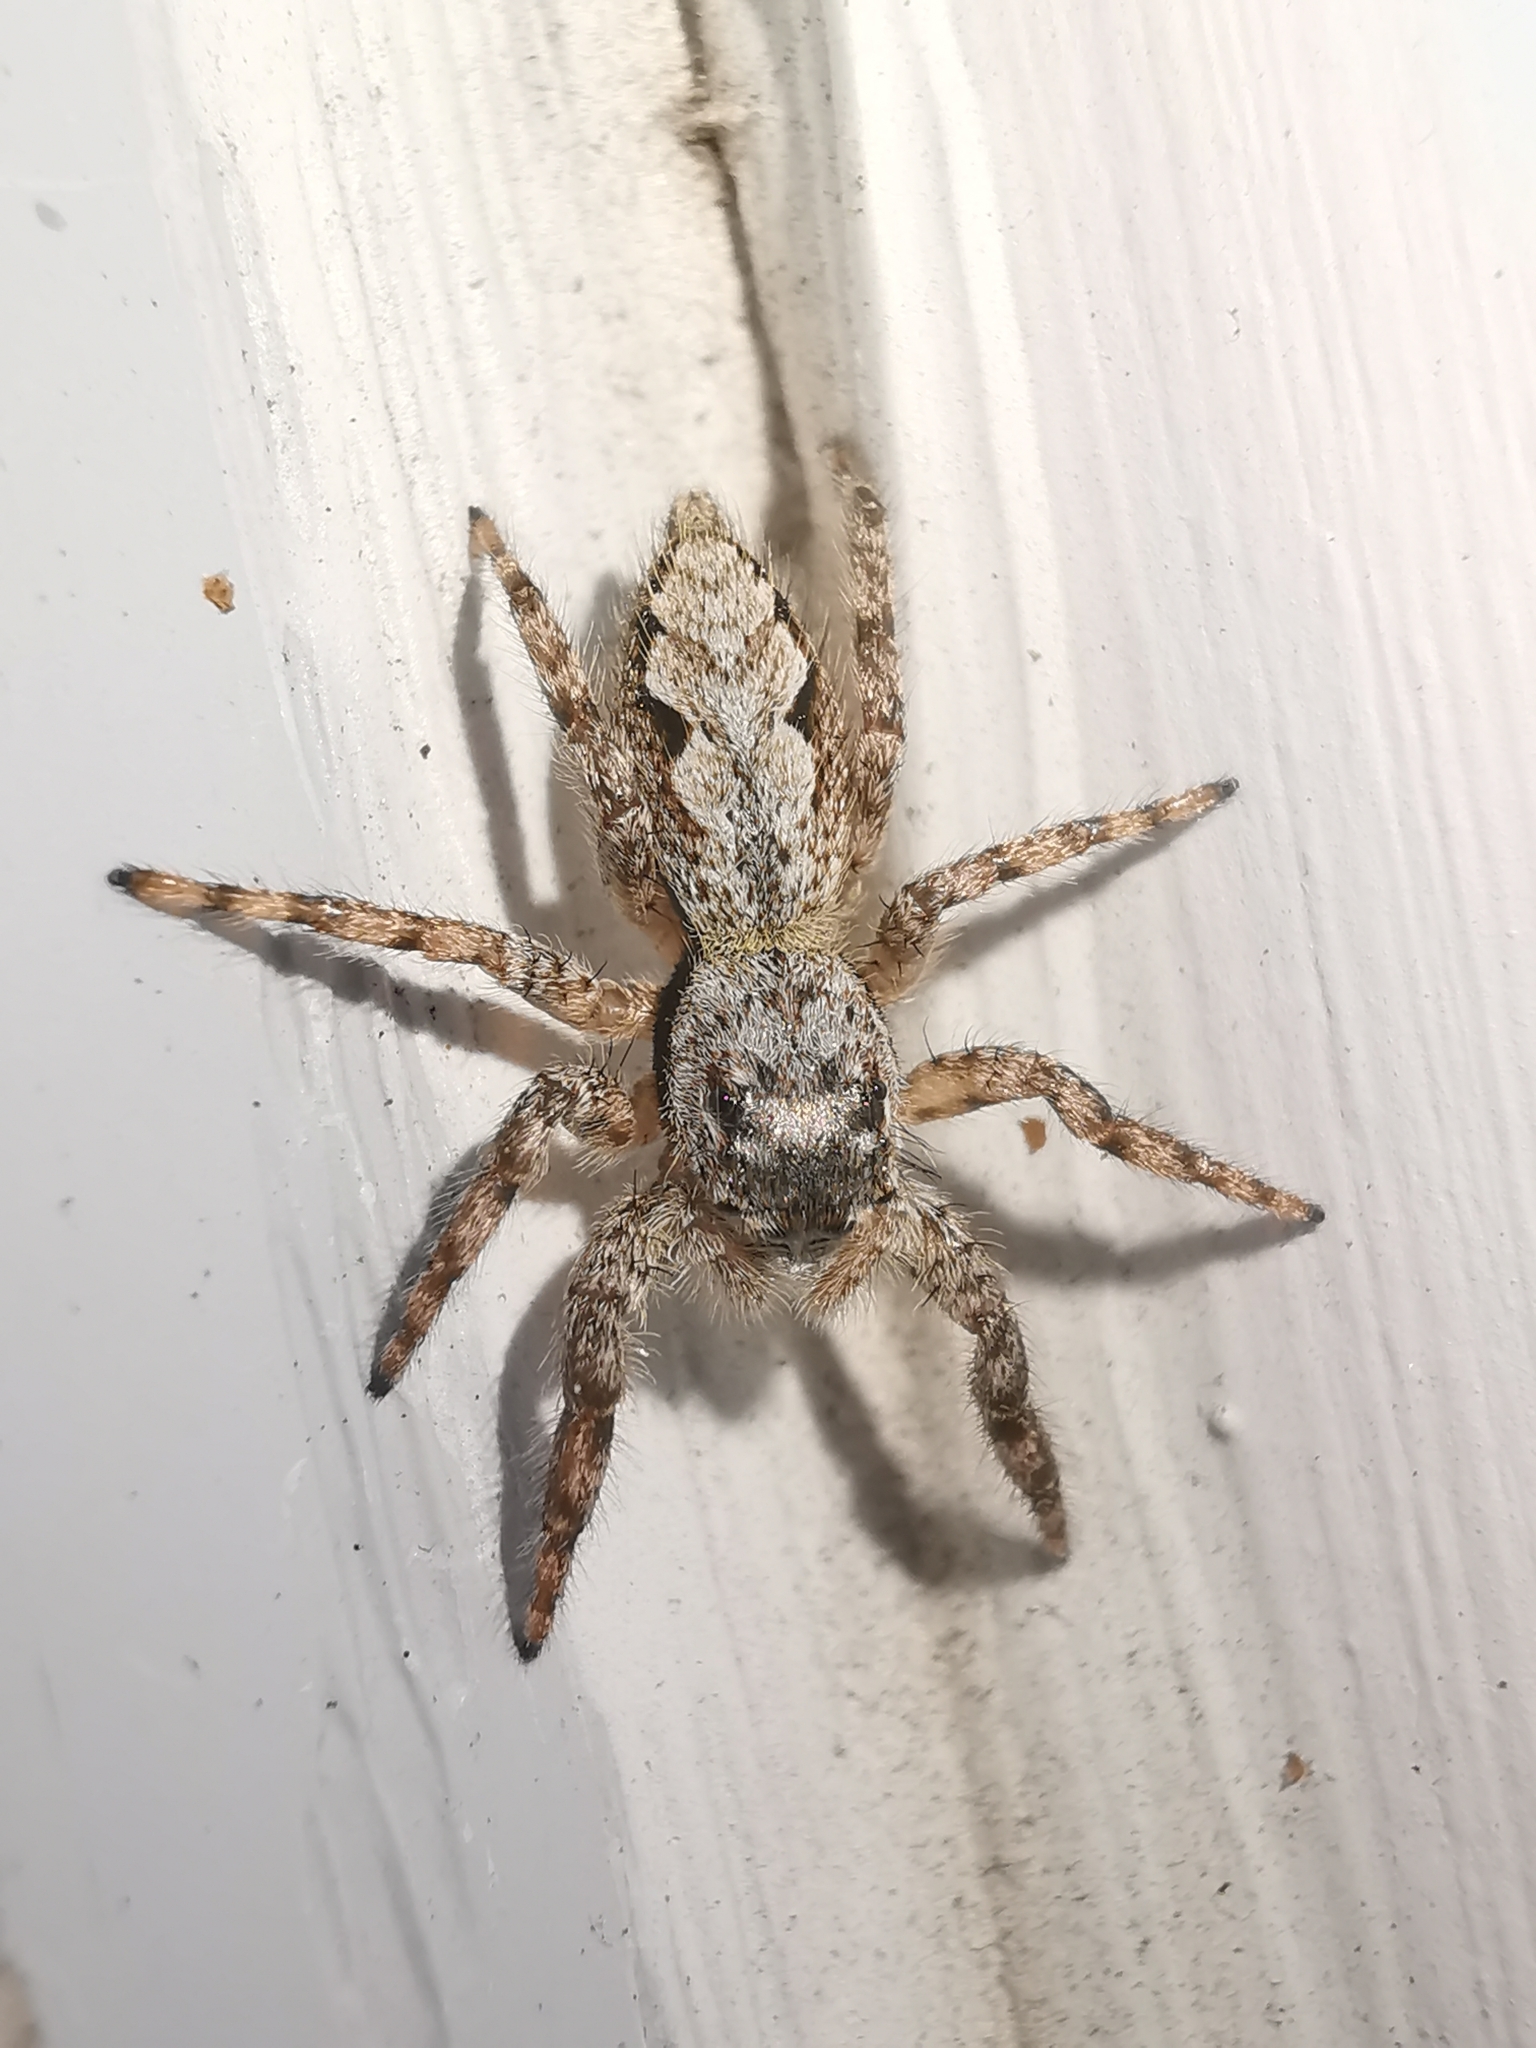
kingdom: Animalia
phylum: Arthropoda
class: Arachnida
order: Araneae
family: Salticidae
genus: Platycryptus
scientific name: Platycryptus undatus
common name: Tan jumping spider
